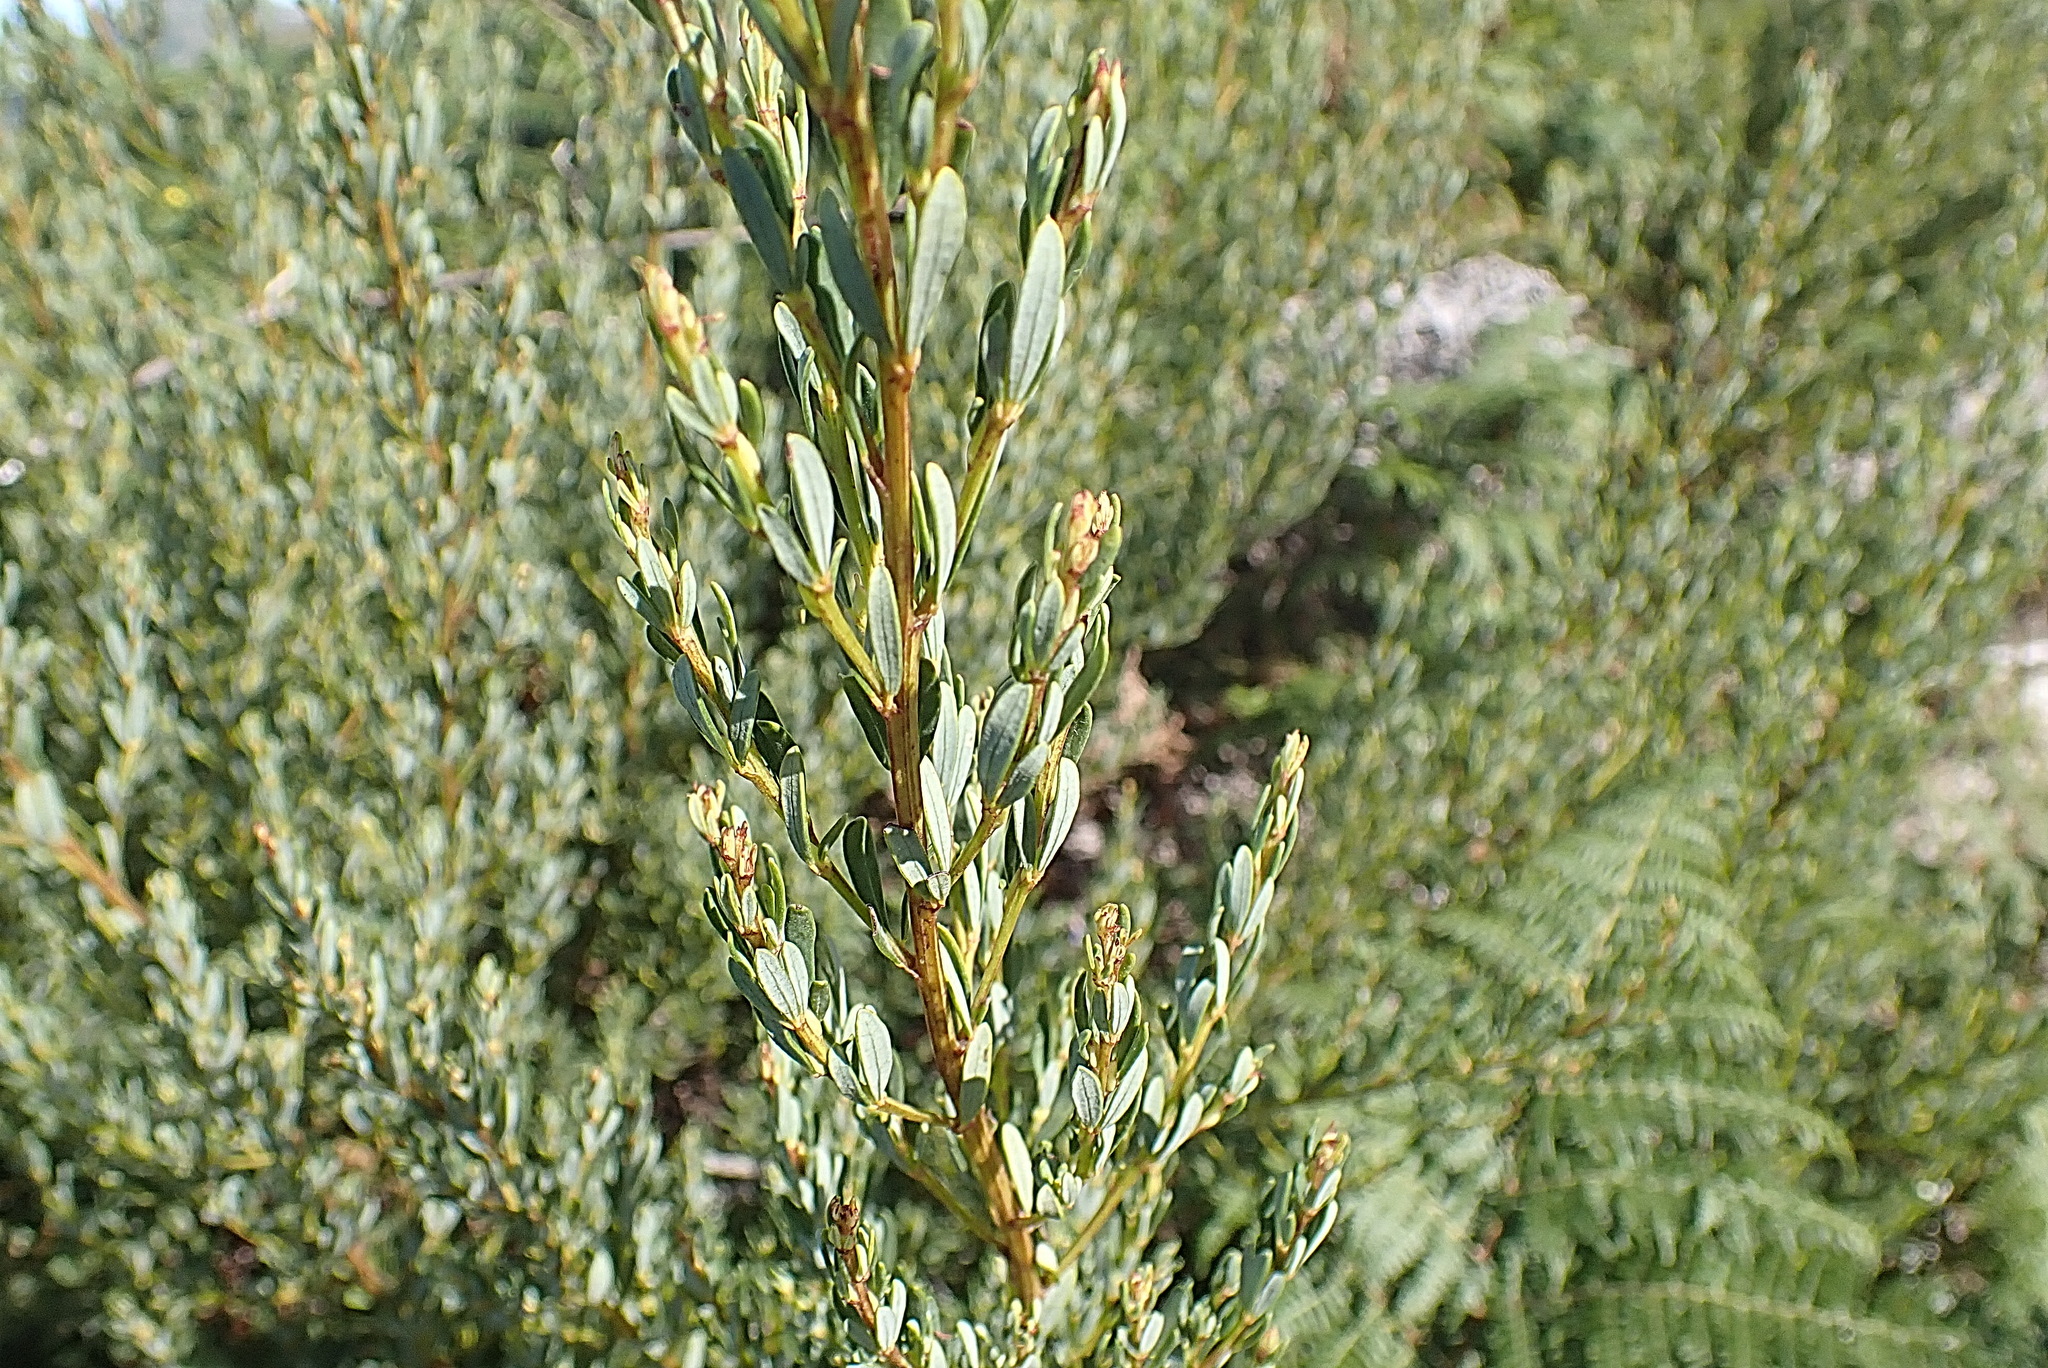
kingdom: Plantae
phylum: Tracheophyta
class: Magnoliopsida
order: Fabales
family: Fabaceae
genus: Cyclopia
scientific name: Cyclopia subternata
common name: Honeybush tea
